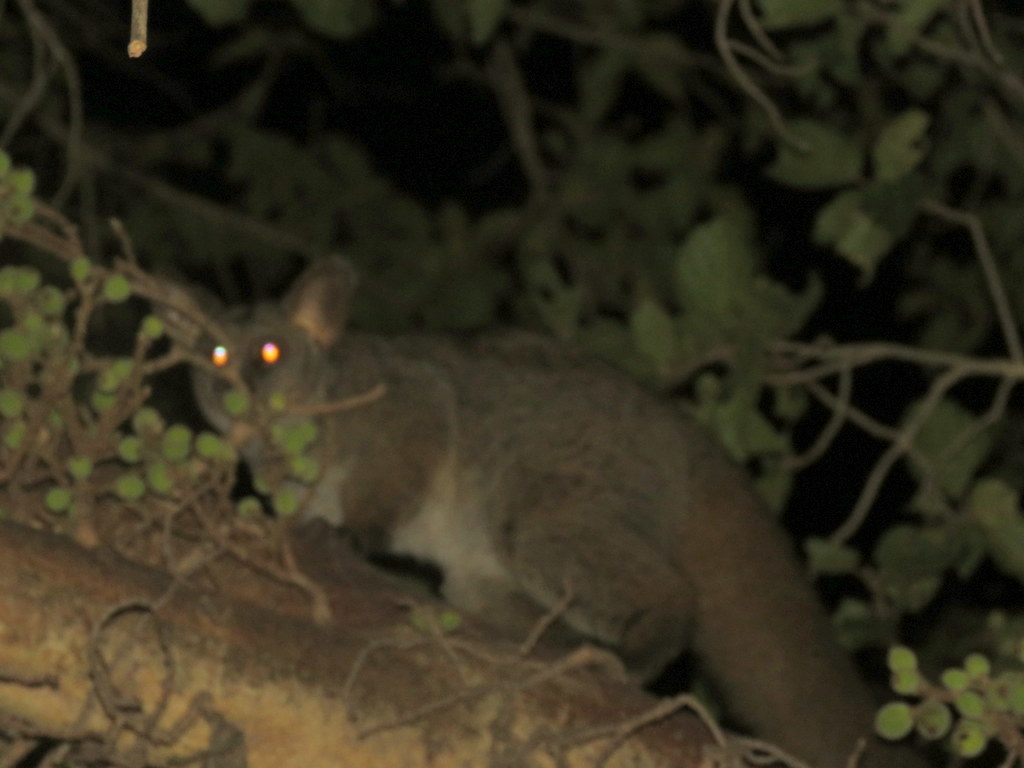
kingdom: Animalia
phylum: Chordata
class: Mammalia
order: Primates
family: Galagidae
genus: Otolemur
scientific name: Otolemur crassicaudatus
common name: Brown greater galago
